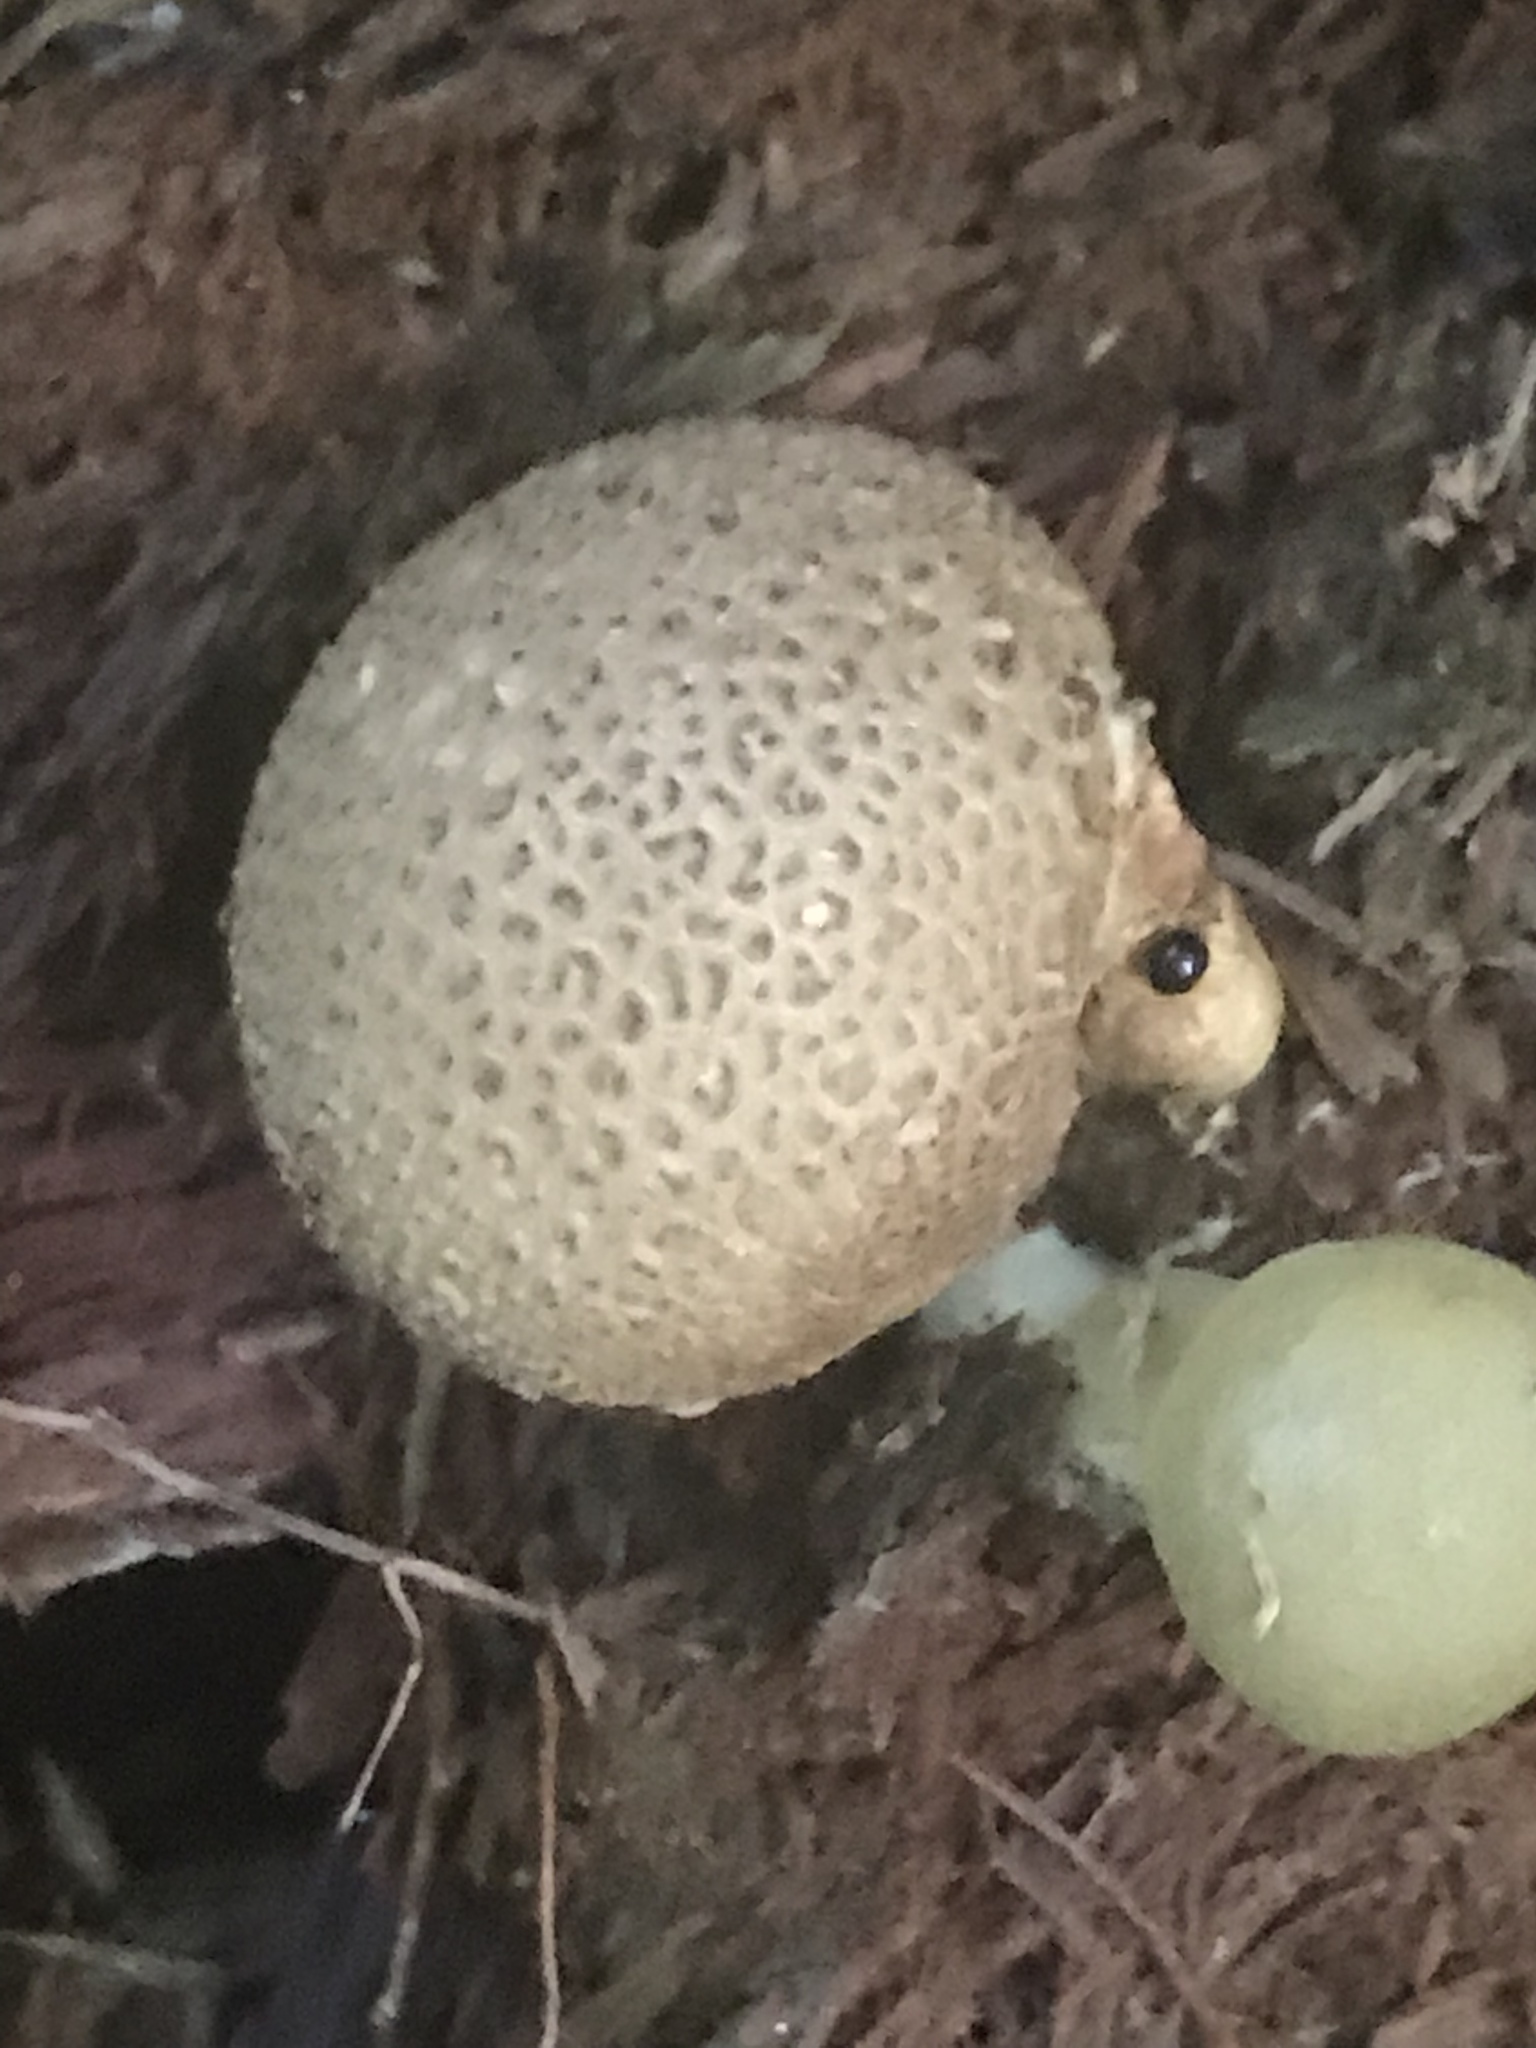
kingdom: Fungi
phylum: Basidiomycota
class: Agaricomycetes
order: Boletales
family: Sclerodermataceae
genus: Scleroderma
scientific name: Scleroderma citrinum
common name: Common earthball
